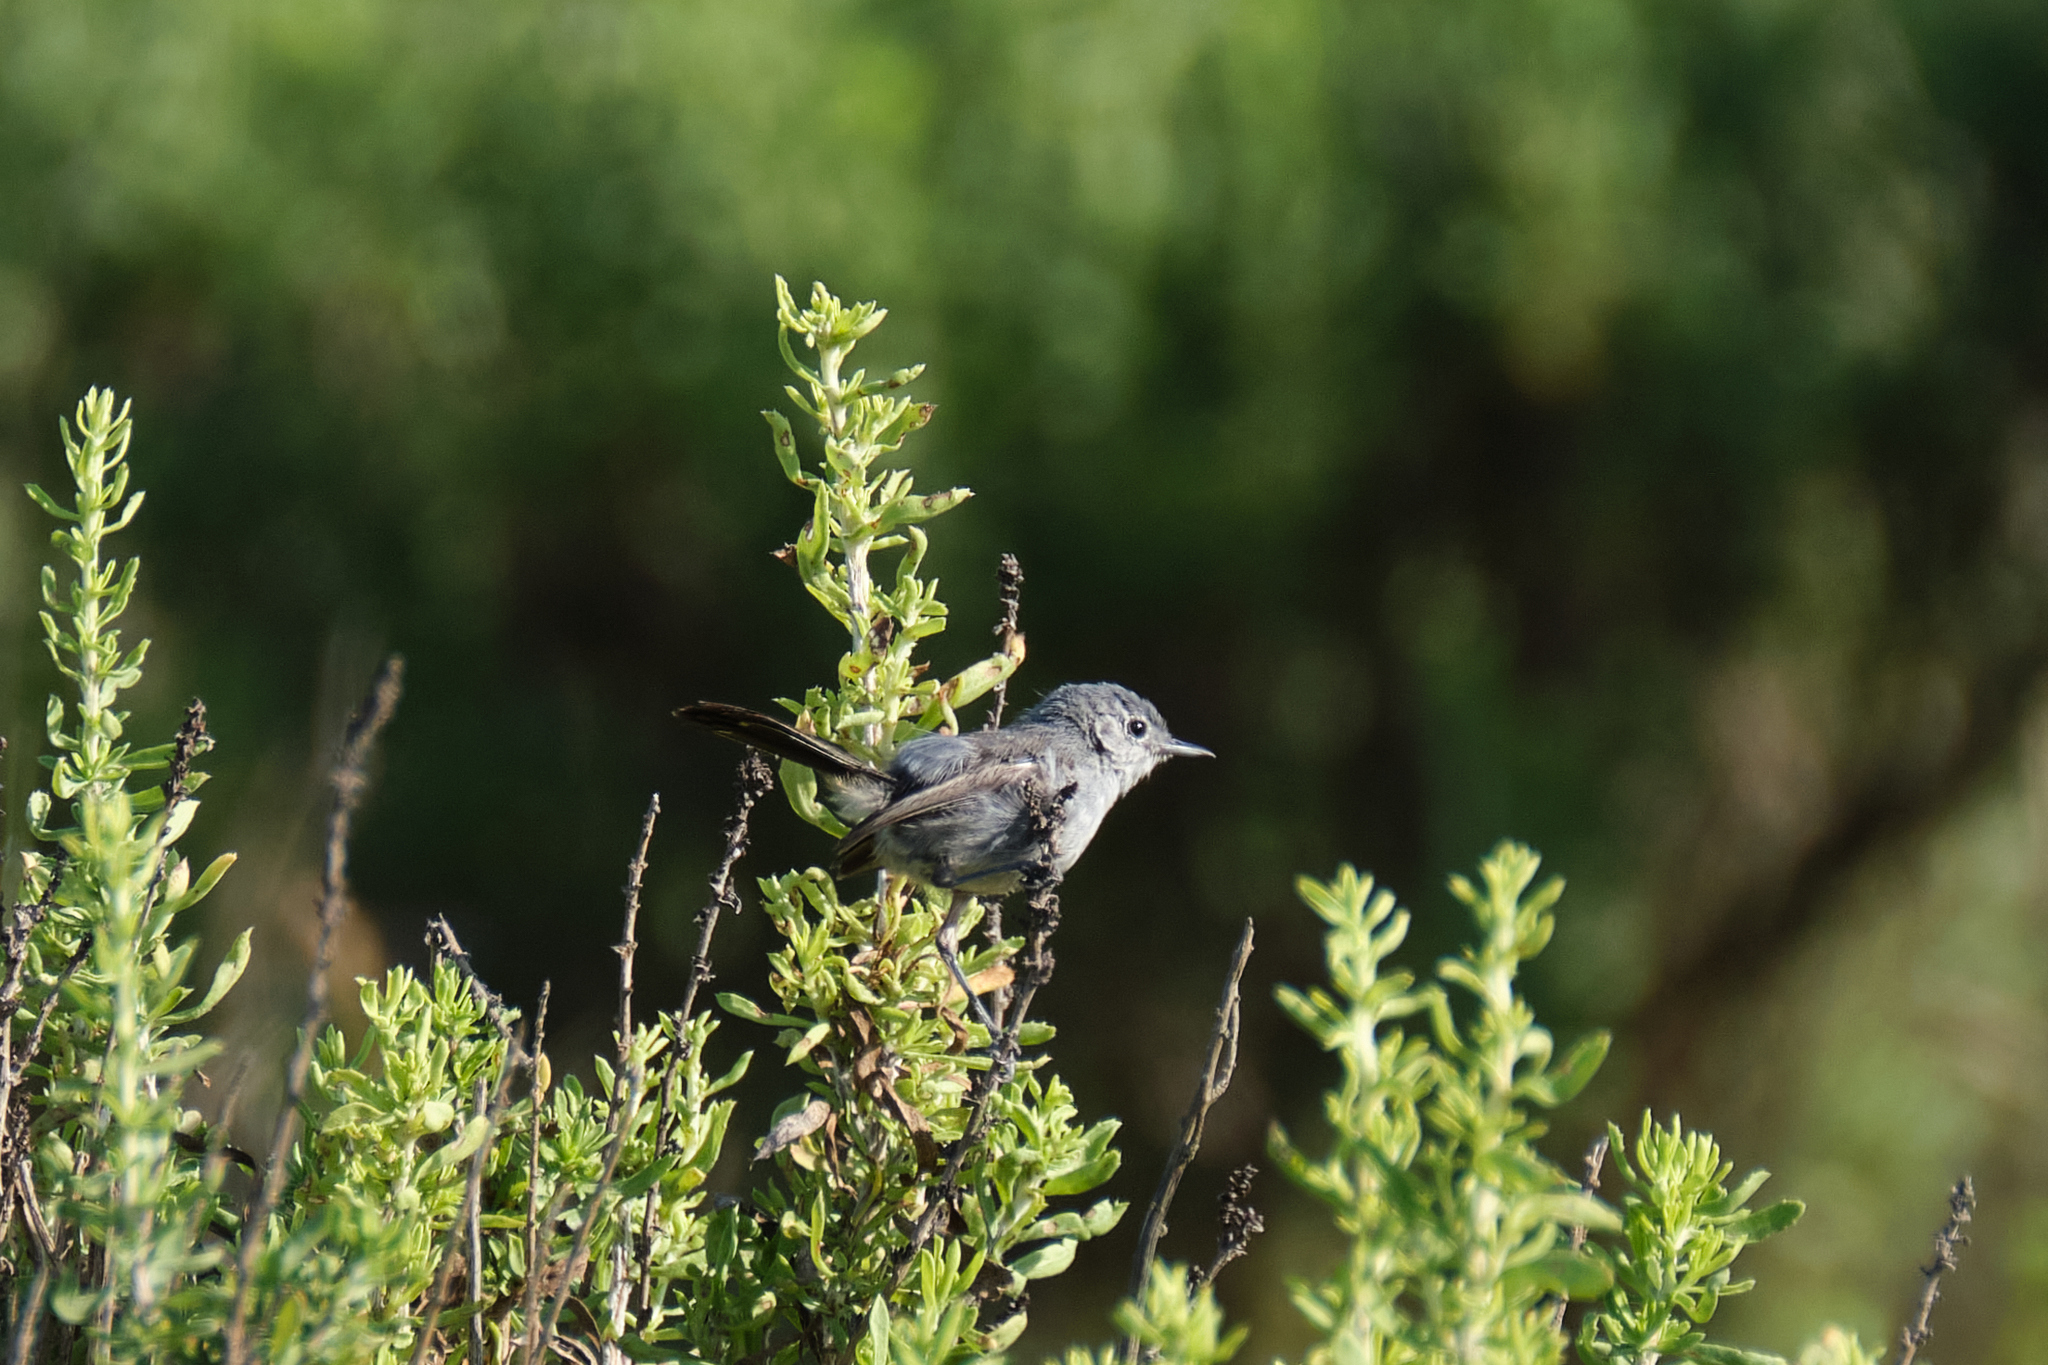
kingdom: Animalia
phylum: Chordata
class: Aves
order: Passeriformes
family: Polioptilidae
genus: Polioptila
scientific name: Polioptila californica
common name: California gnatcatcher
